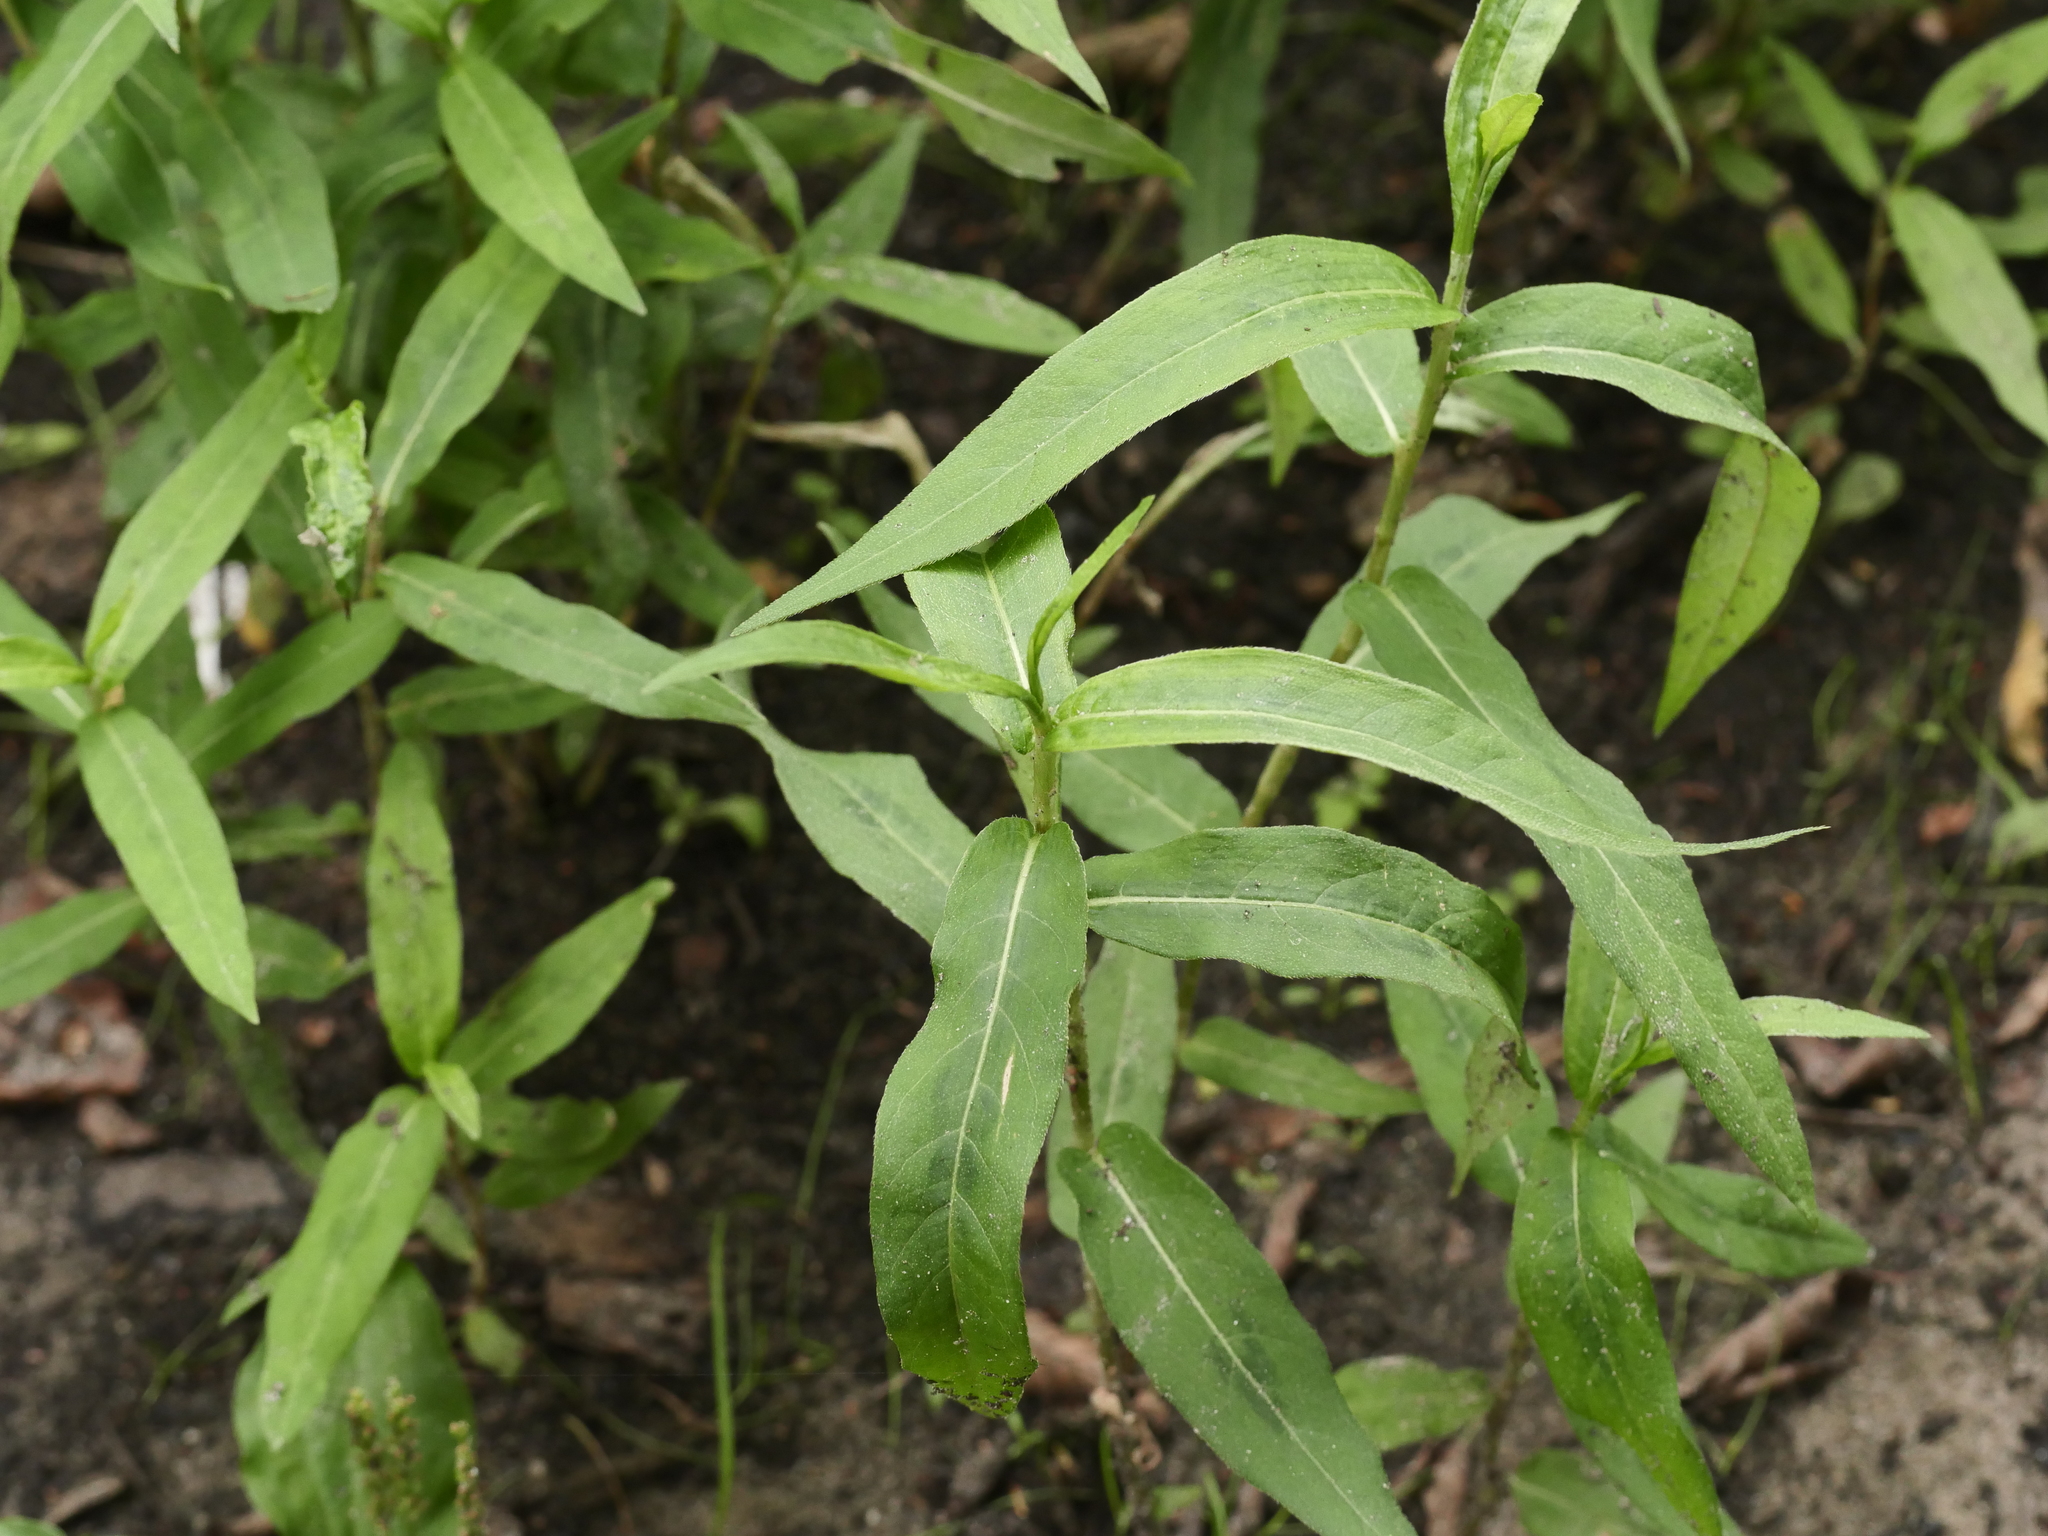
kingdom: Plantae
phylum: Tracheophyta
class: Magnoliopsida
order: Caryophyllales
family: Polygonaceae
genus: Persicaria
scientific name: Persicaria amphibia
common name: Amphibious bistort
